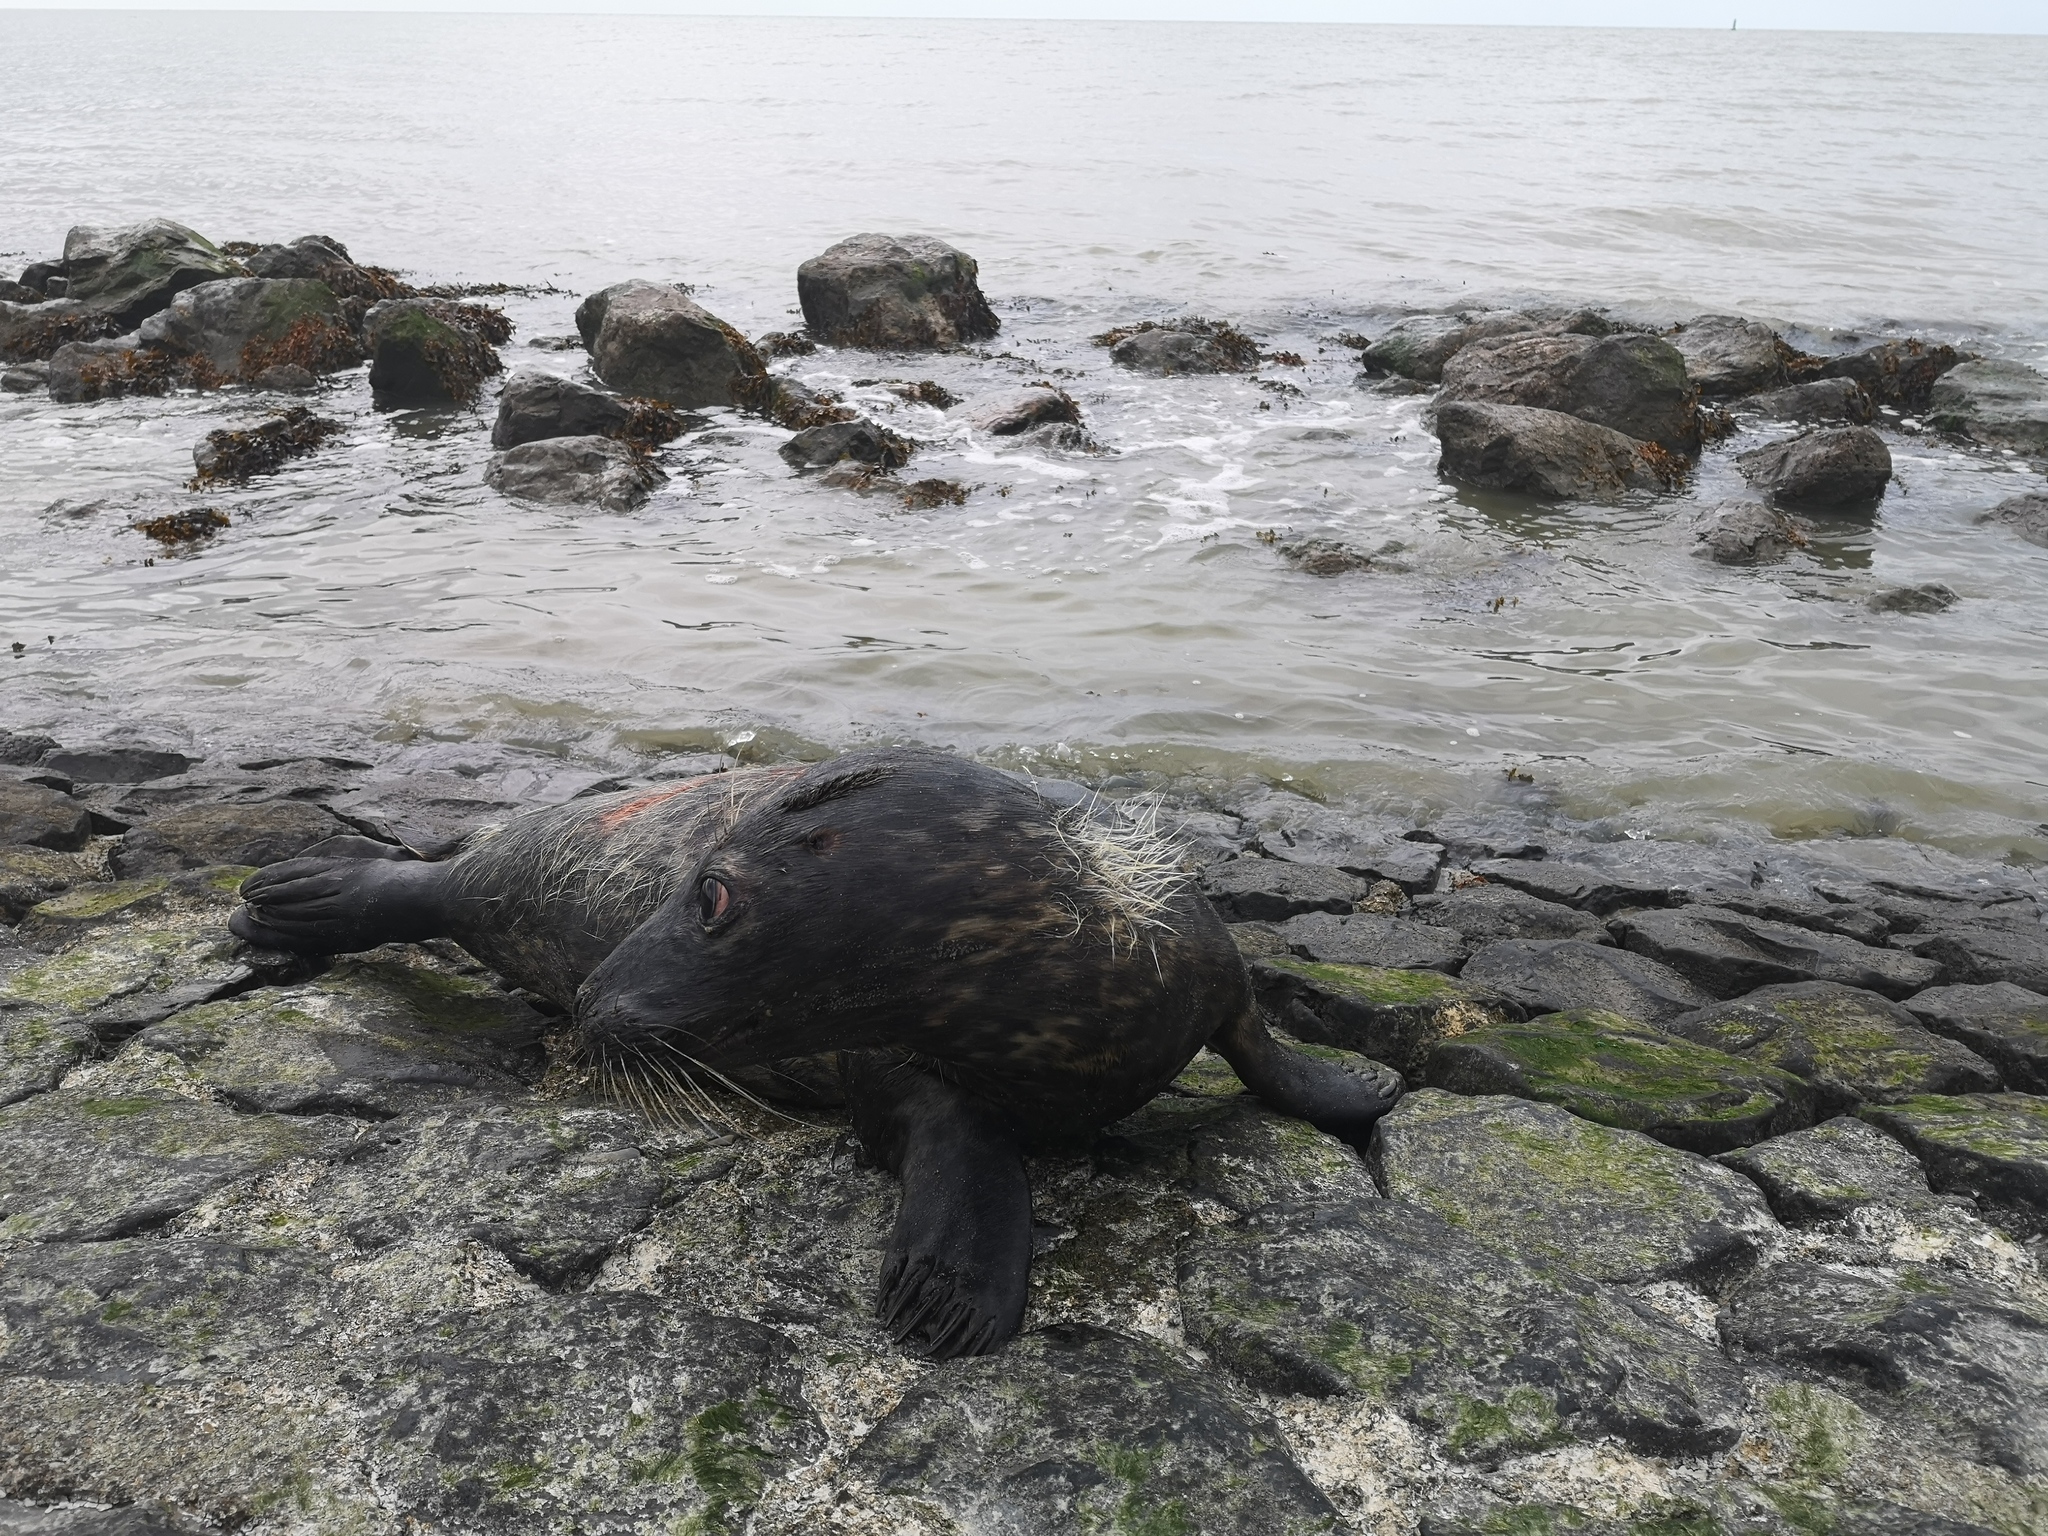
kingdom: Animalia
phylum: Chordata
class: Mammalia
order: Carnivora
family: Phocidae
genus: Halichoerus
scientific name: Halichoerus grypus
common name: Grey seal
